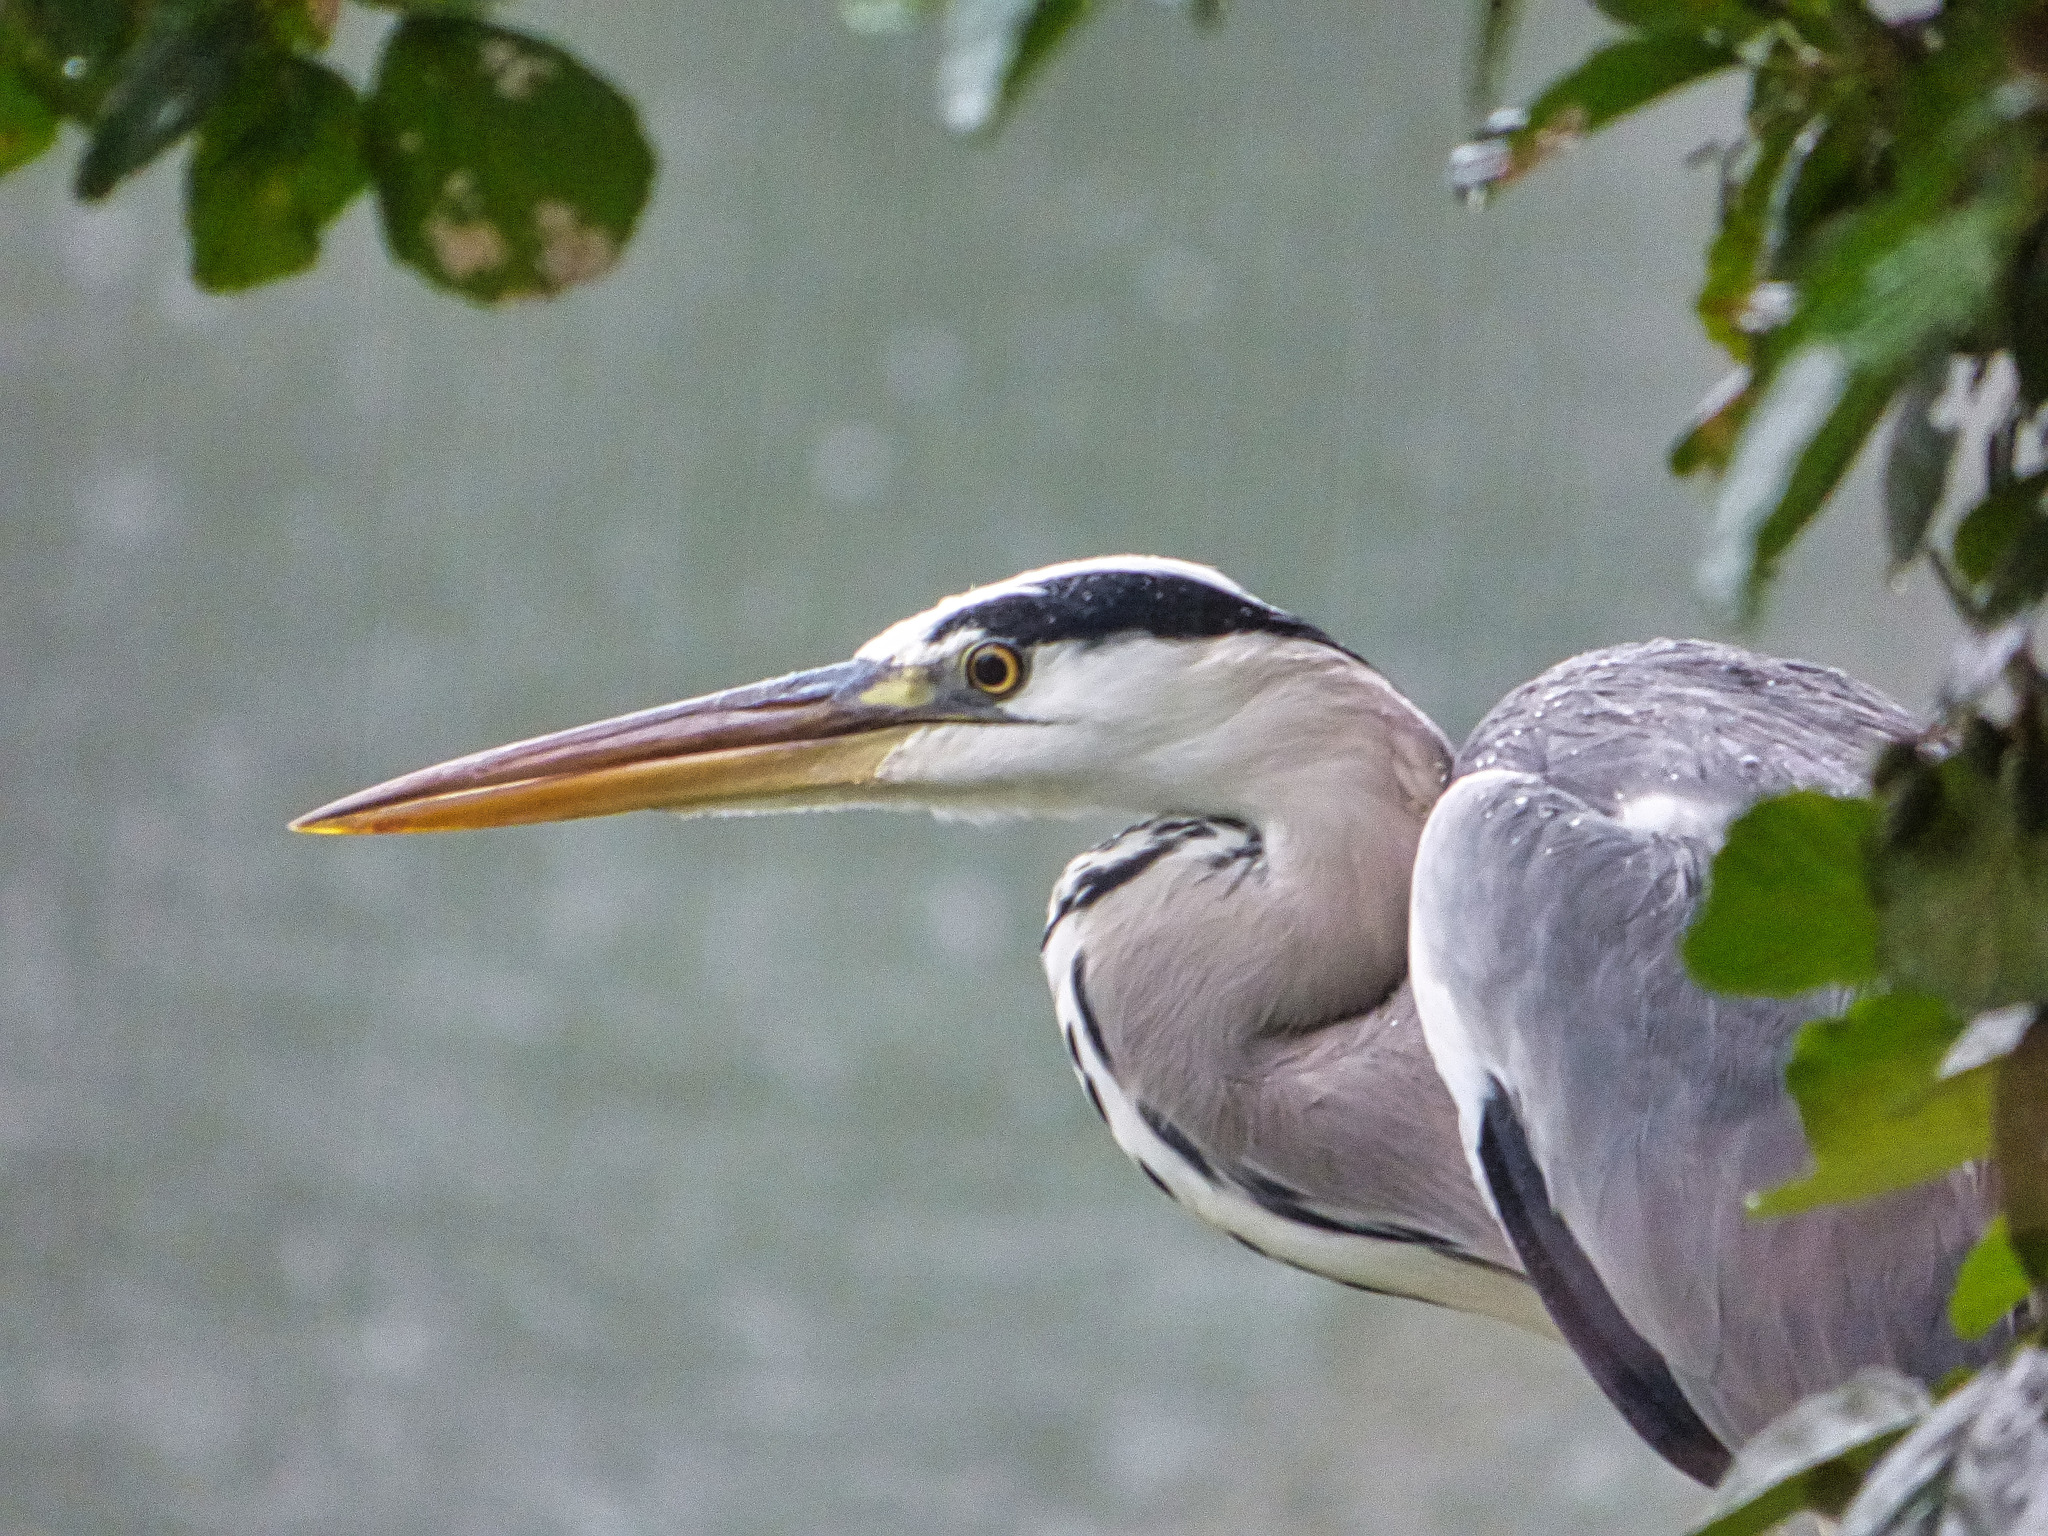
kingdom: Animalia
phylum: Chordata
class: Aves
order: Pelecaniformes
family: Ardeidae
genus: Ardea
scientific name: Ardea cinerea
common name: Grey heron
